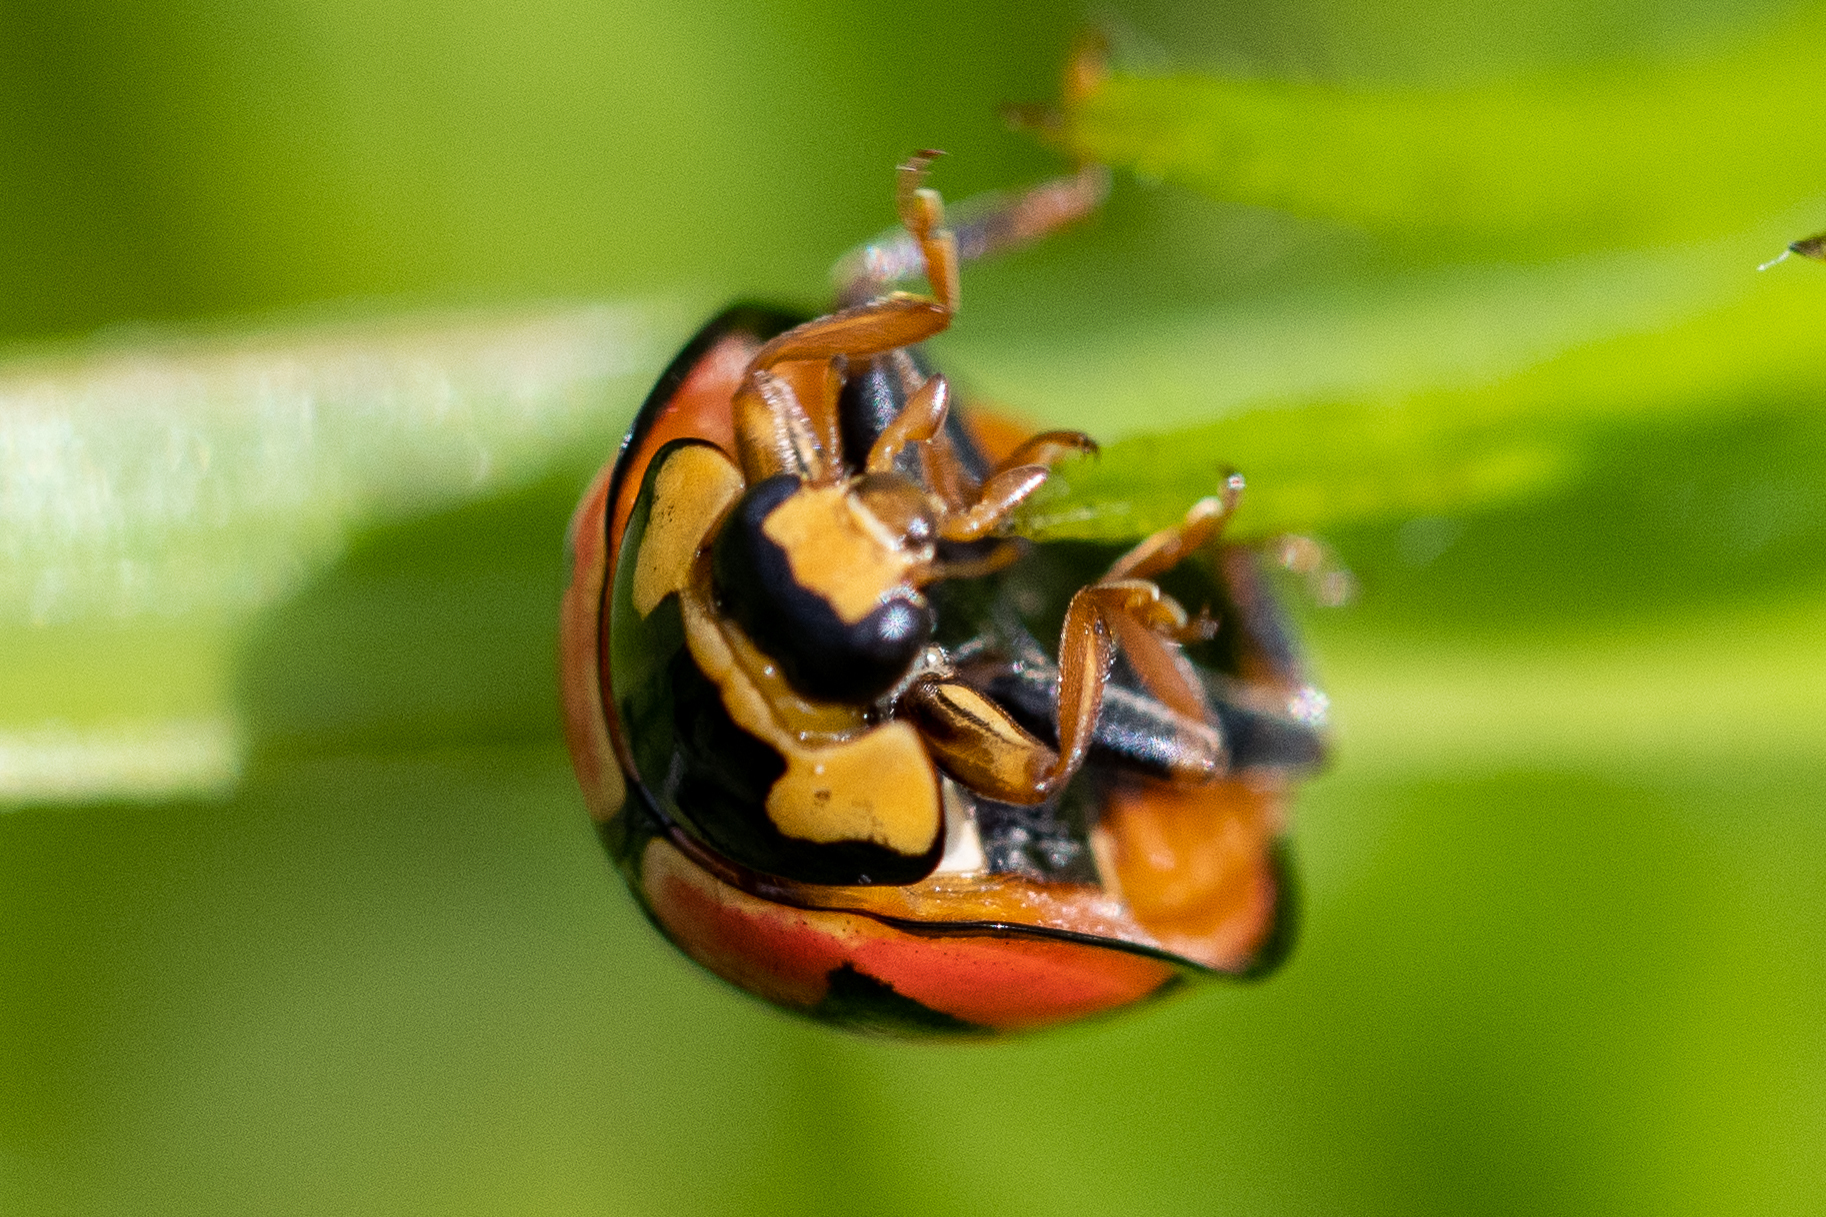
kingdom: Animalia
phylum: Arthropoda
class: Insecta
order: Coleoptera
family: Coccinellidae
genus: Cheilomenes
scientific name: Cheilomenes lunata
